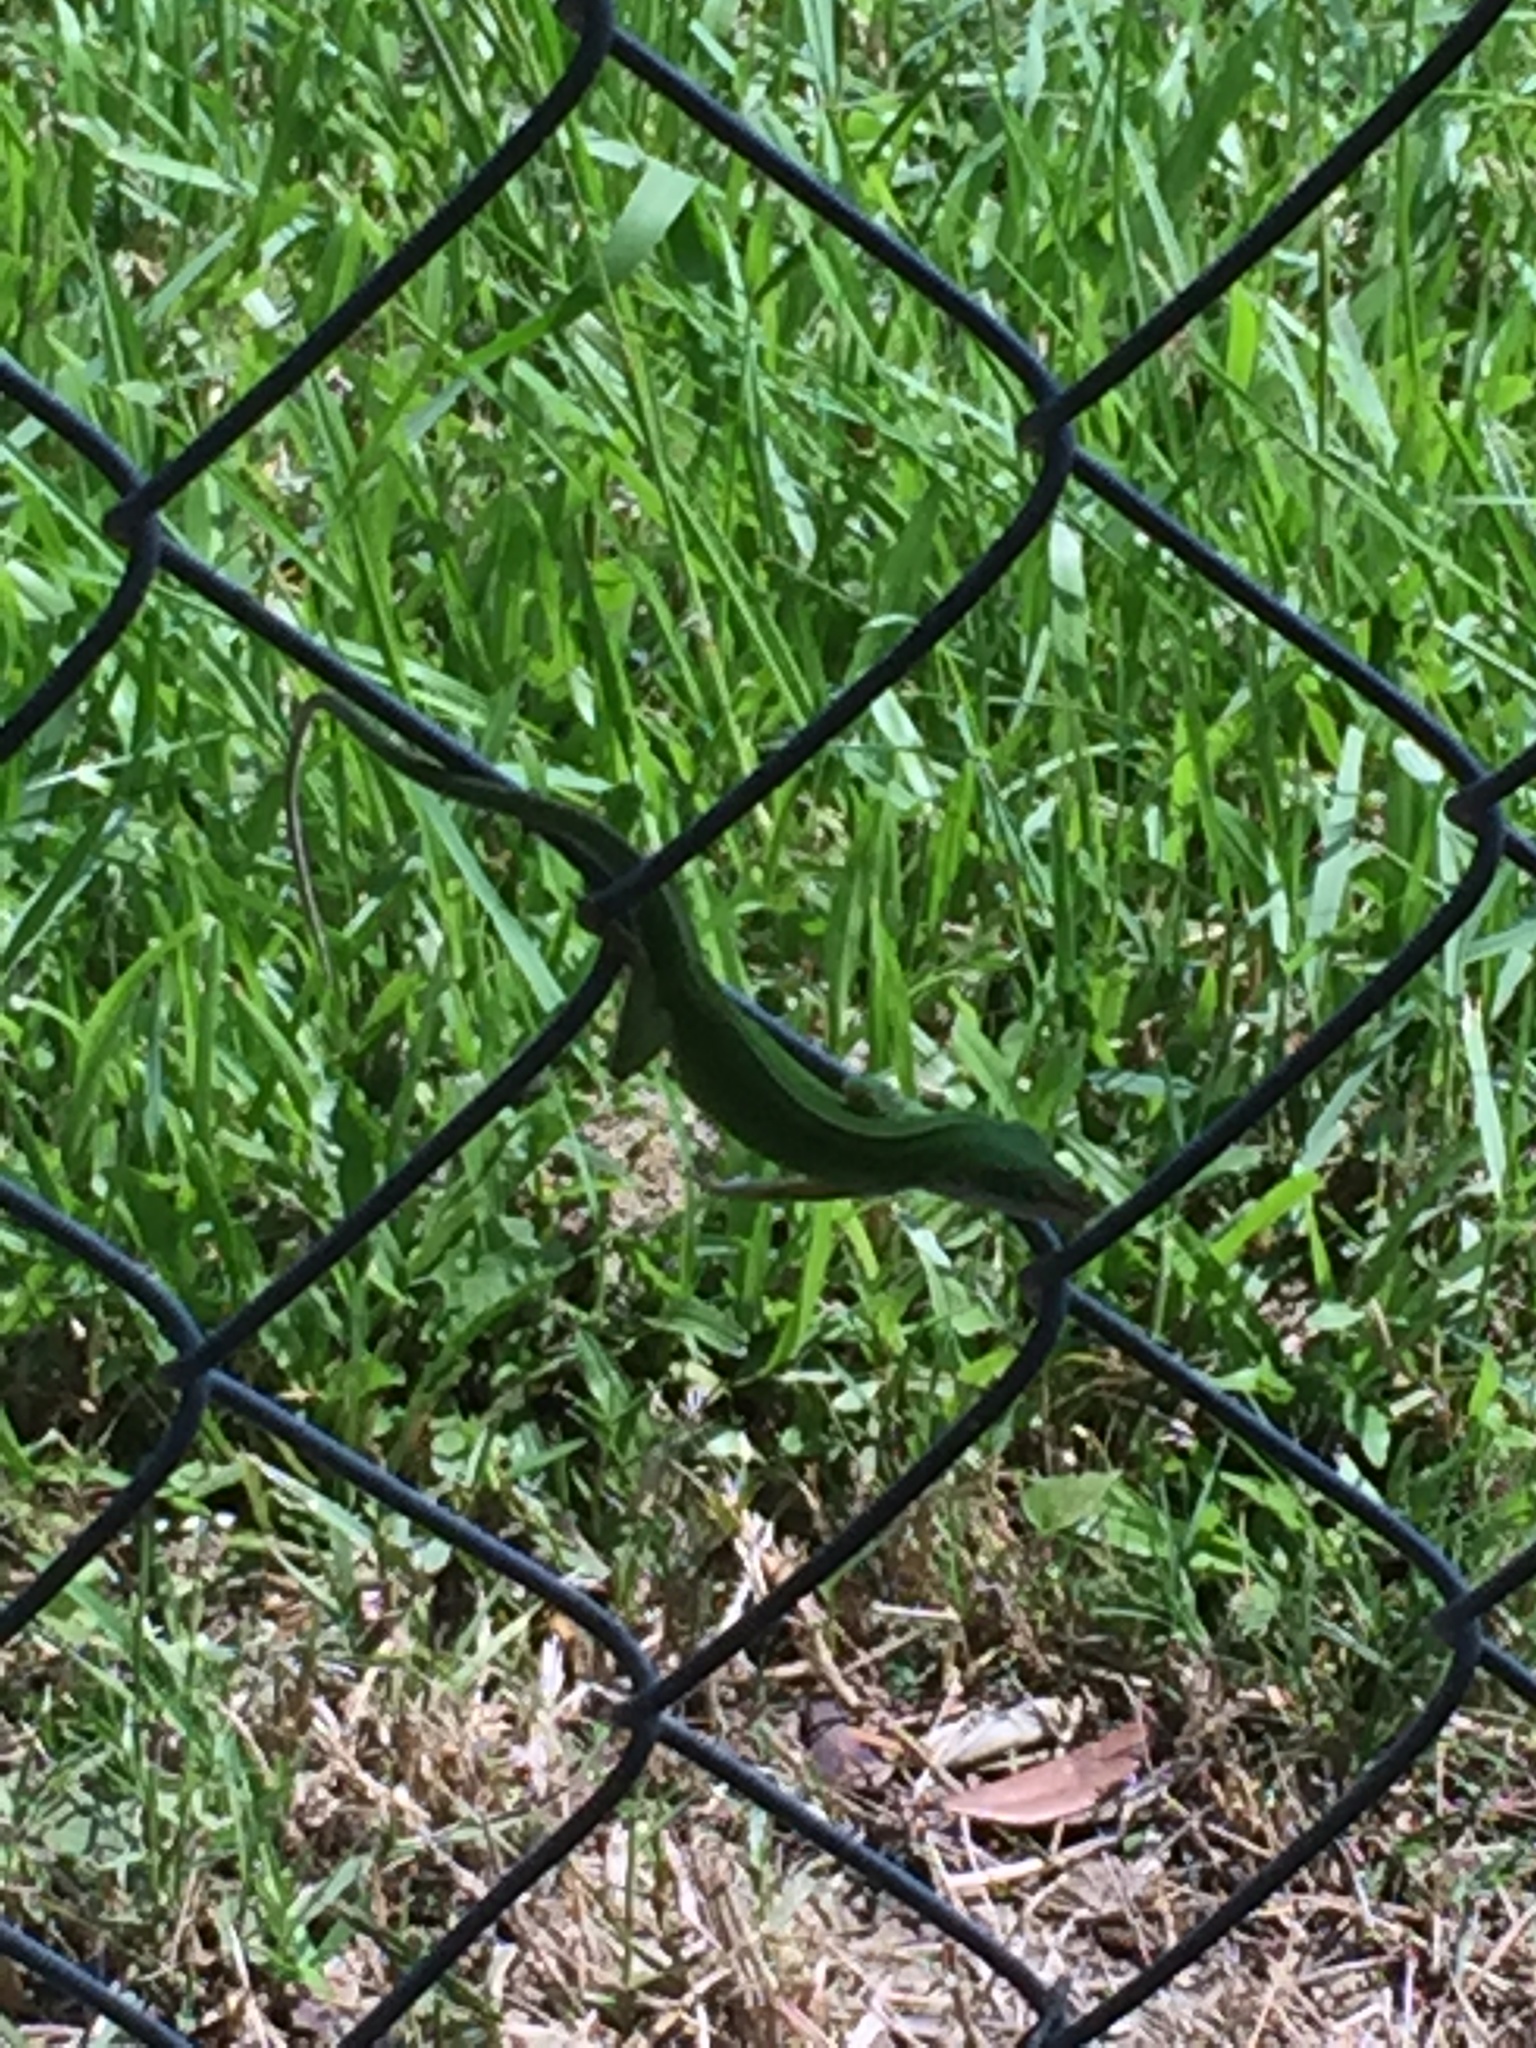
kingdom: Animalia
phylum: Chordata
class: Squamata
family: Dactyloidae
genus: Anolis
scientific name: Anolis carolinensis
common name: Green anole
